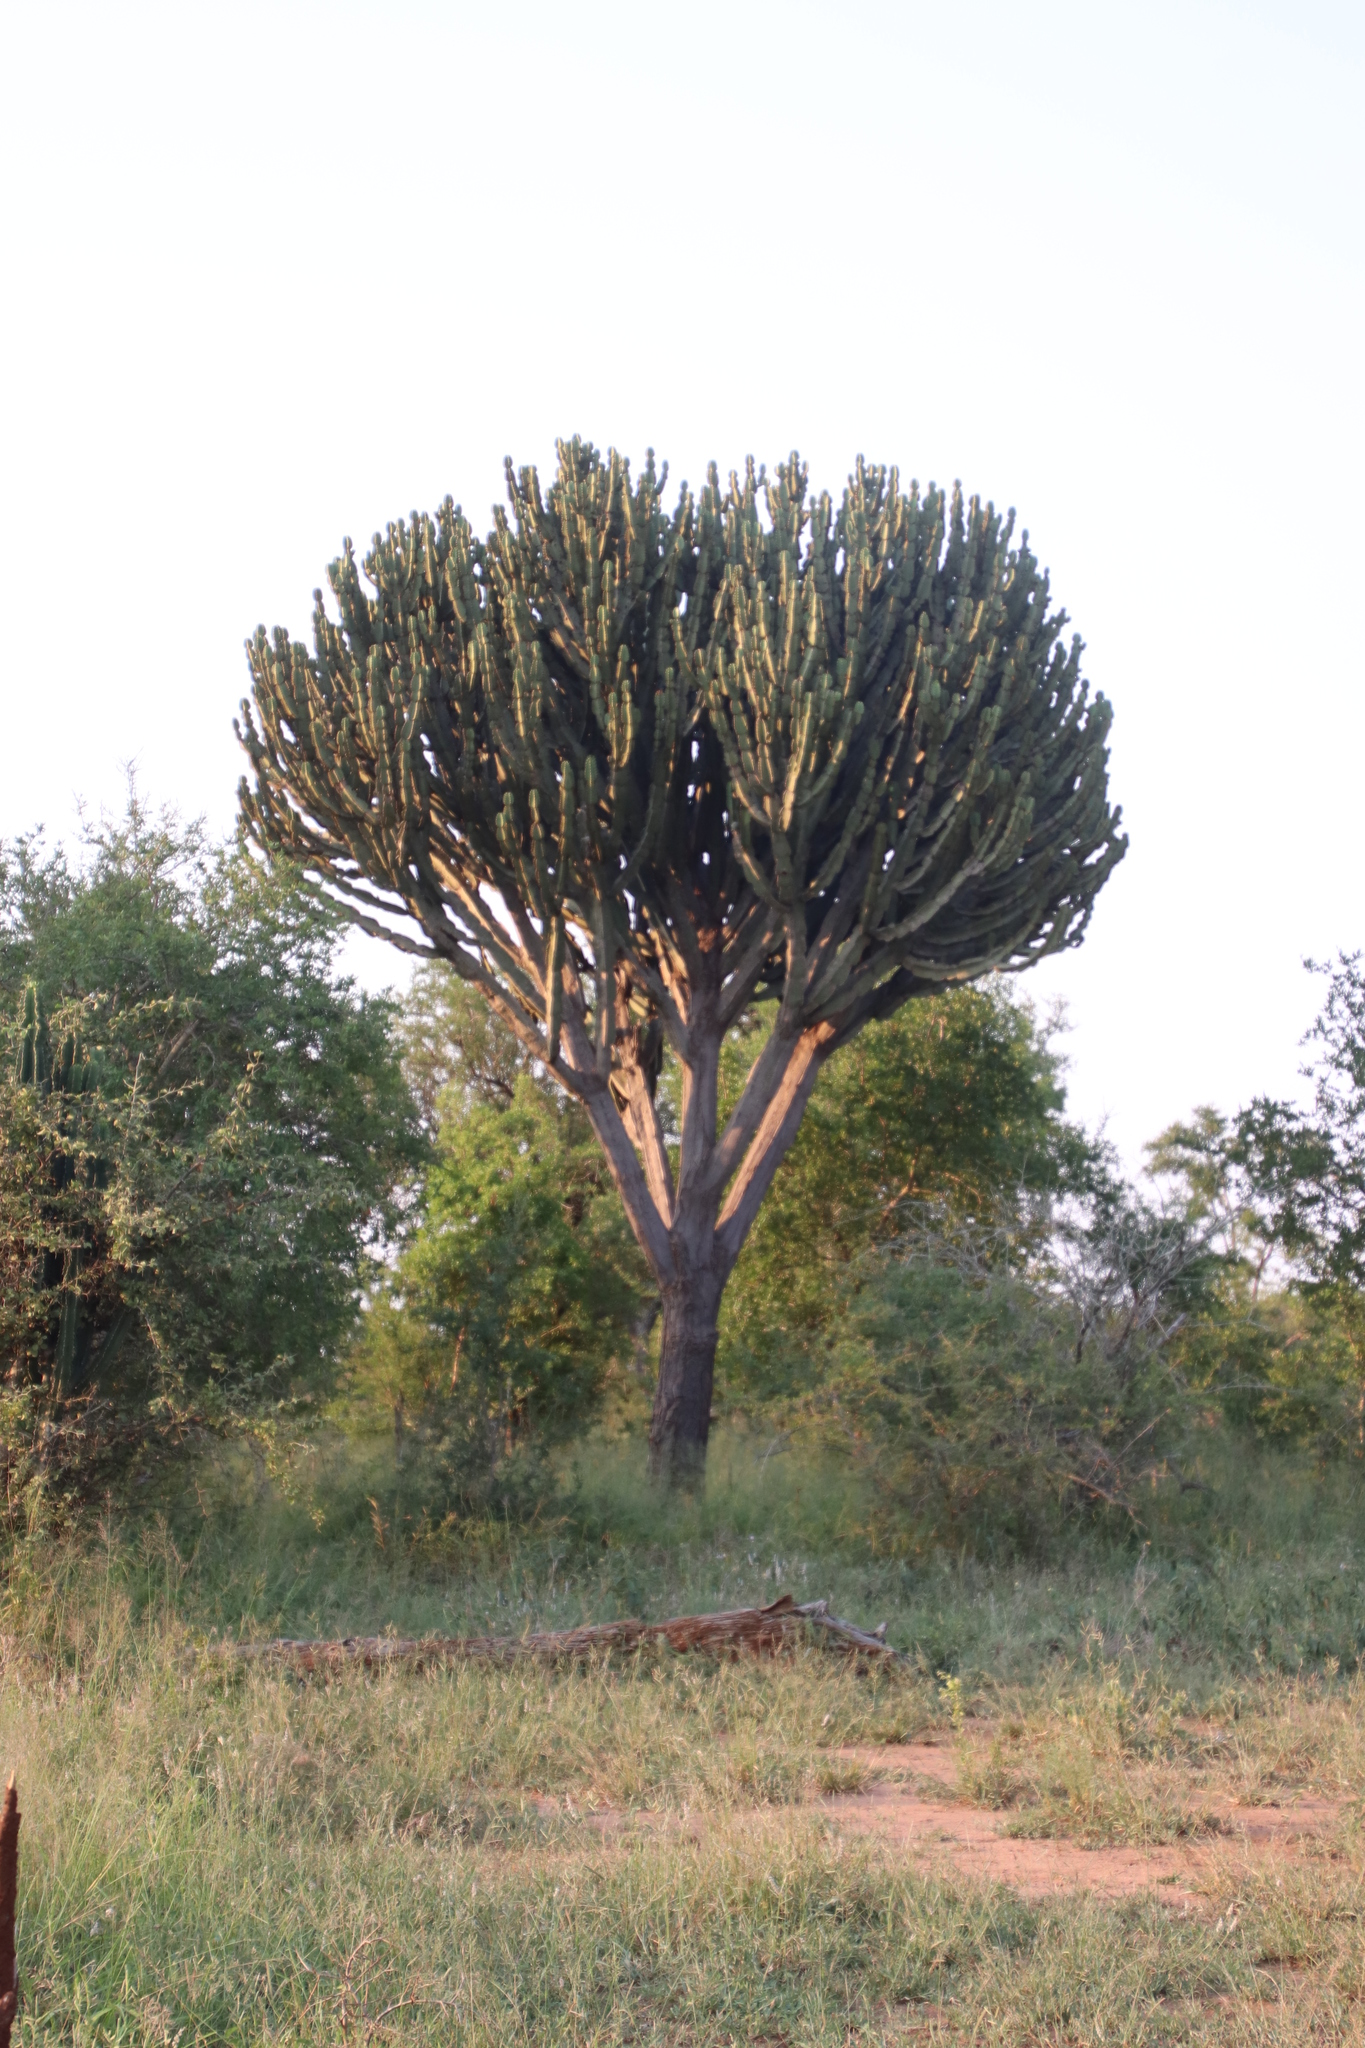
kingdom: Plantae
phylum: Tracheophyta
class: Magnoliopsida
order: Malpighiales
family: Euphorbiaceae
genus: Euphorbia
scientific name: Euphorbia ingens
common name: Cactus spurge
